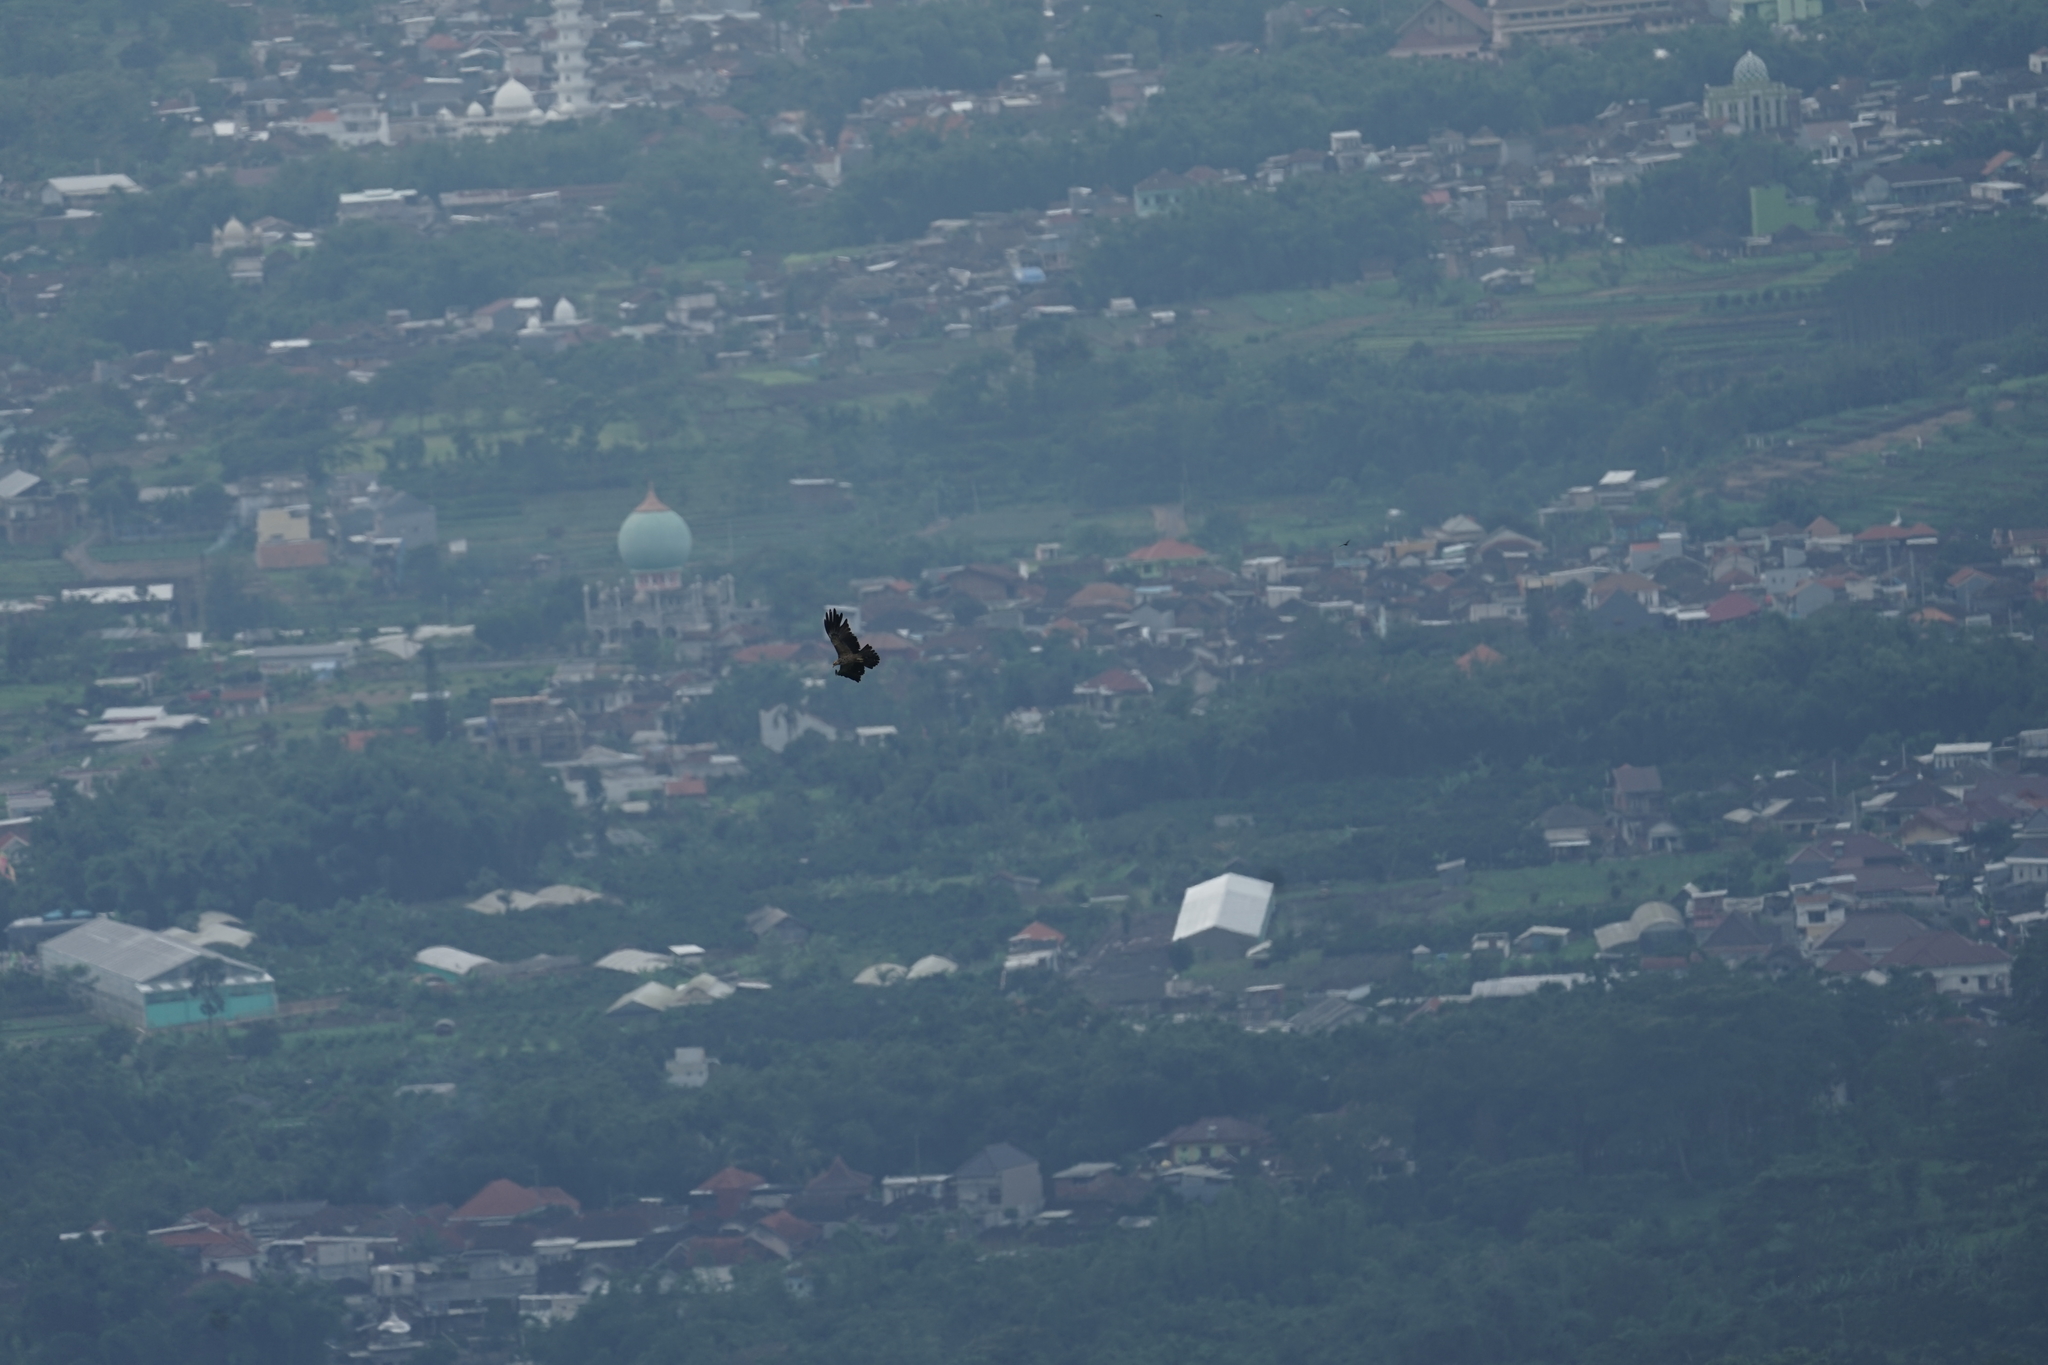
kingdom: Animalia
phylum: Chordata
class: Aves
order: Accipitriformes
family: Accipitridae
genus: Ictinaetus
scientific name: Ictinaetus malayensis
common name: Black eagle
